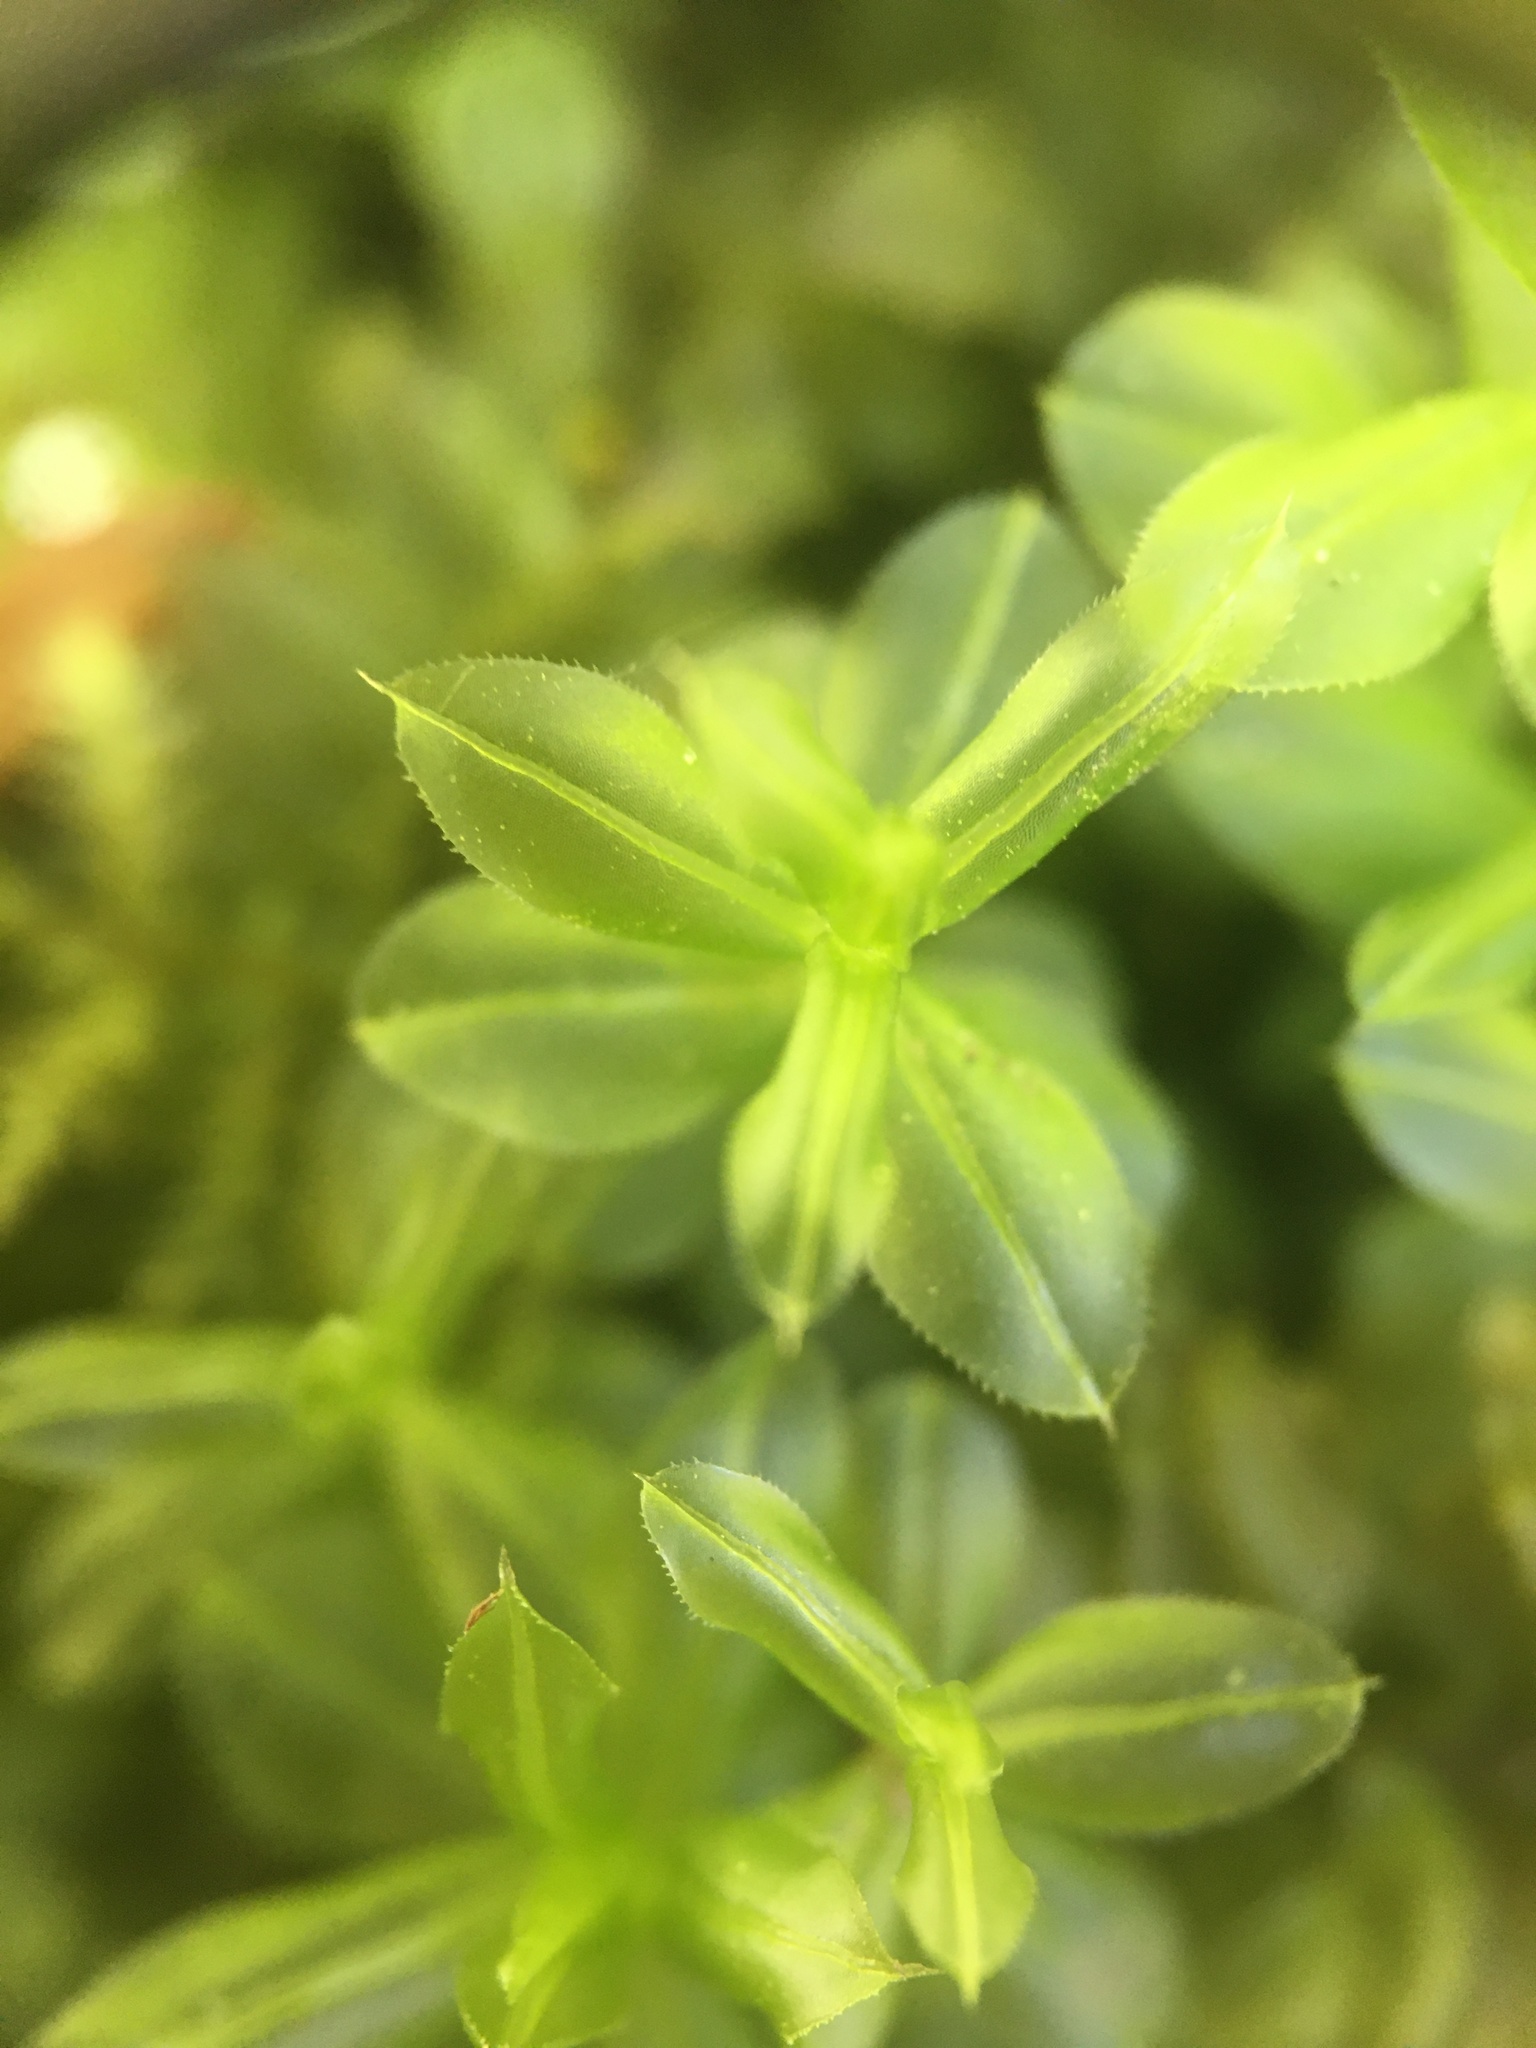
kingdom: Plantae
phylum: Bryophyta
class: Bryopsida
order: Bryales
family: Mniaceae
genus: Plagiomnium
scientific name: Plagiomnium ciliare
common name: Toothed leafy moss
